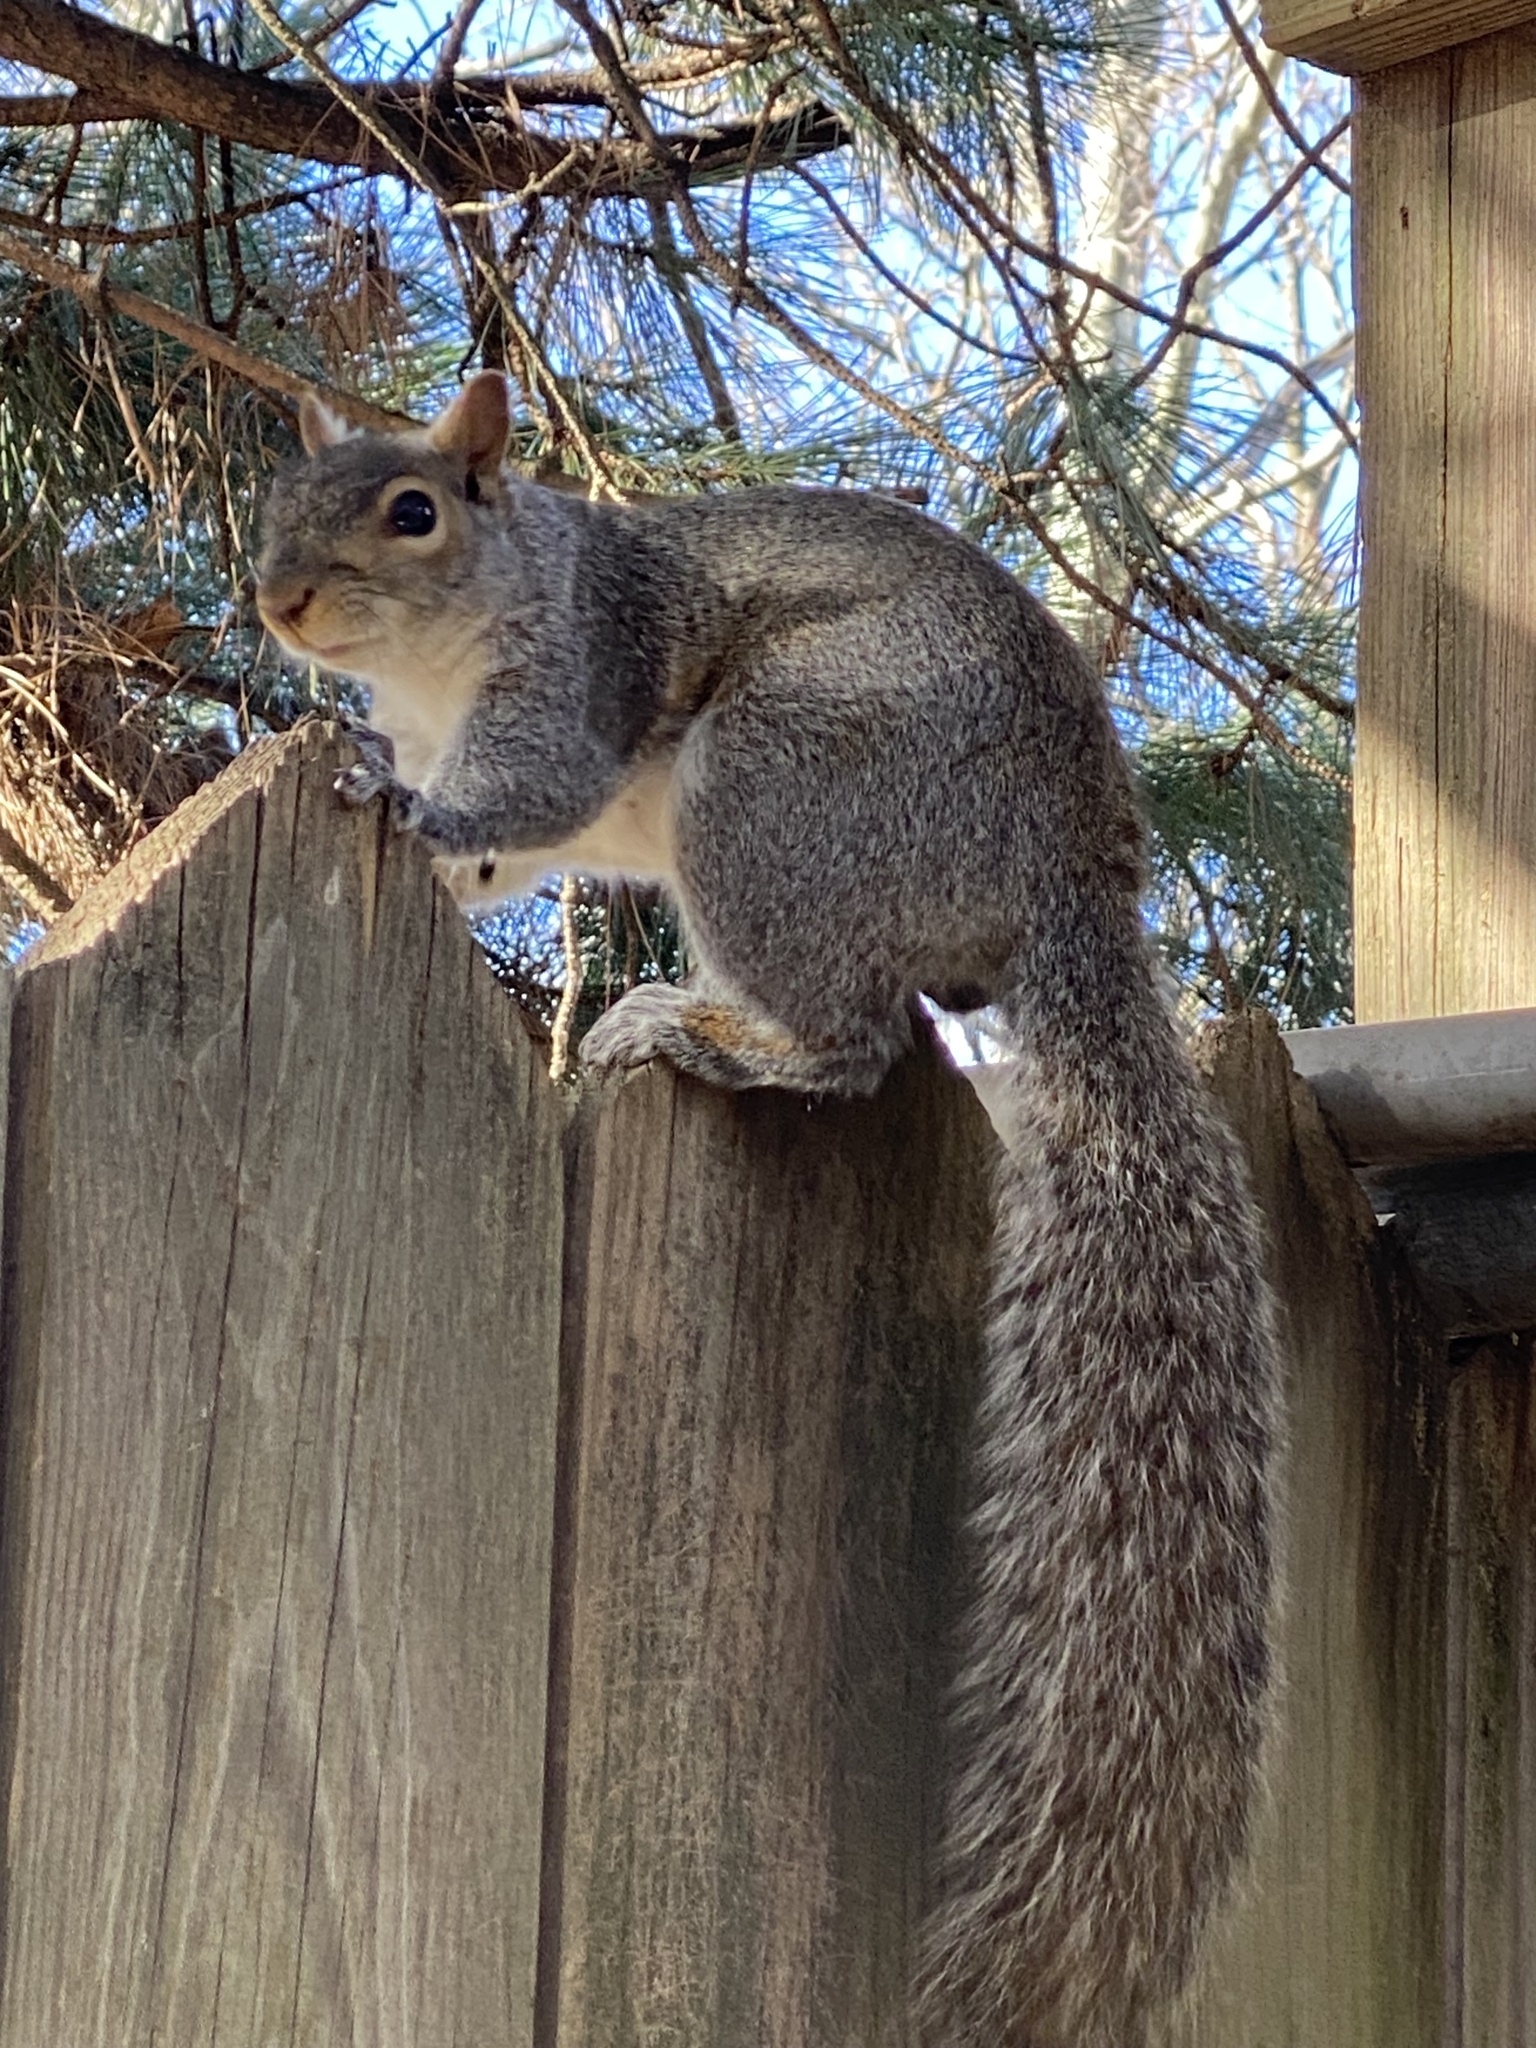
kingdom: Animalia
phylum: Chordata
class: Mammalia
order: Rodentia
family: Sciuridae
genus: Sciurus
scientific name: Sciurus carolinensis
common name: Eastern gray squirrel
